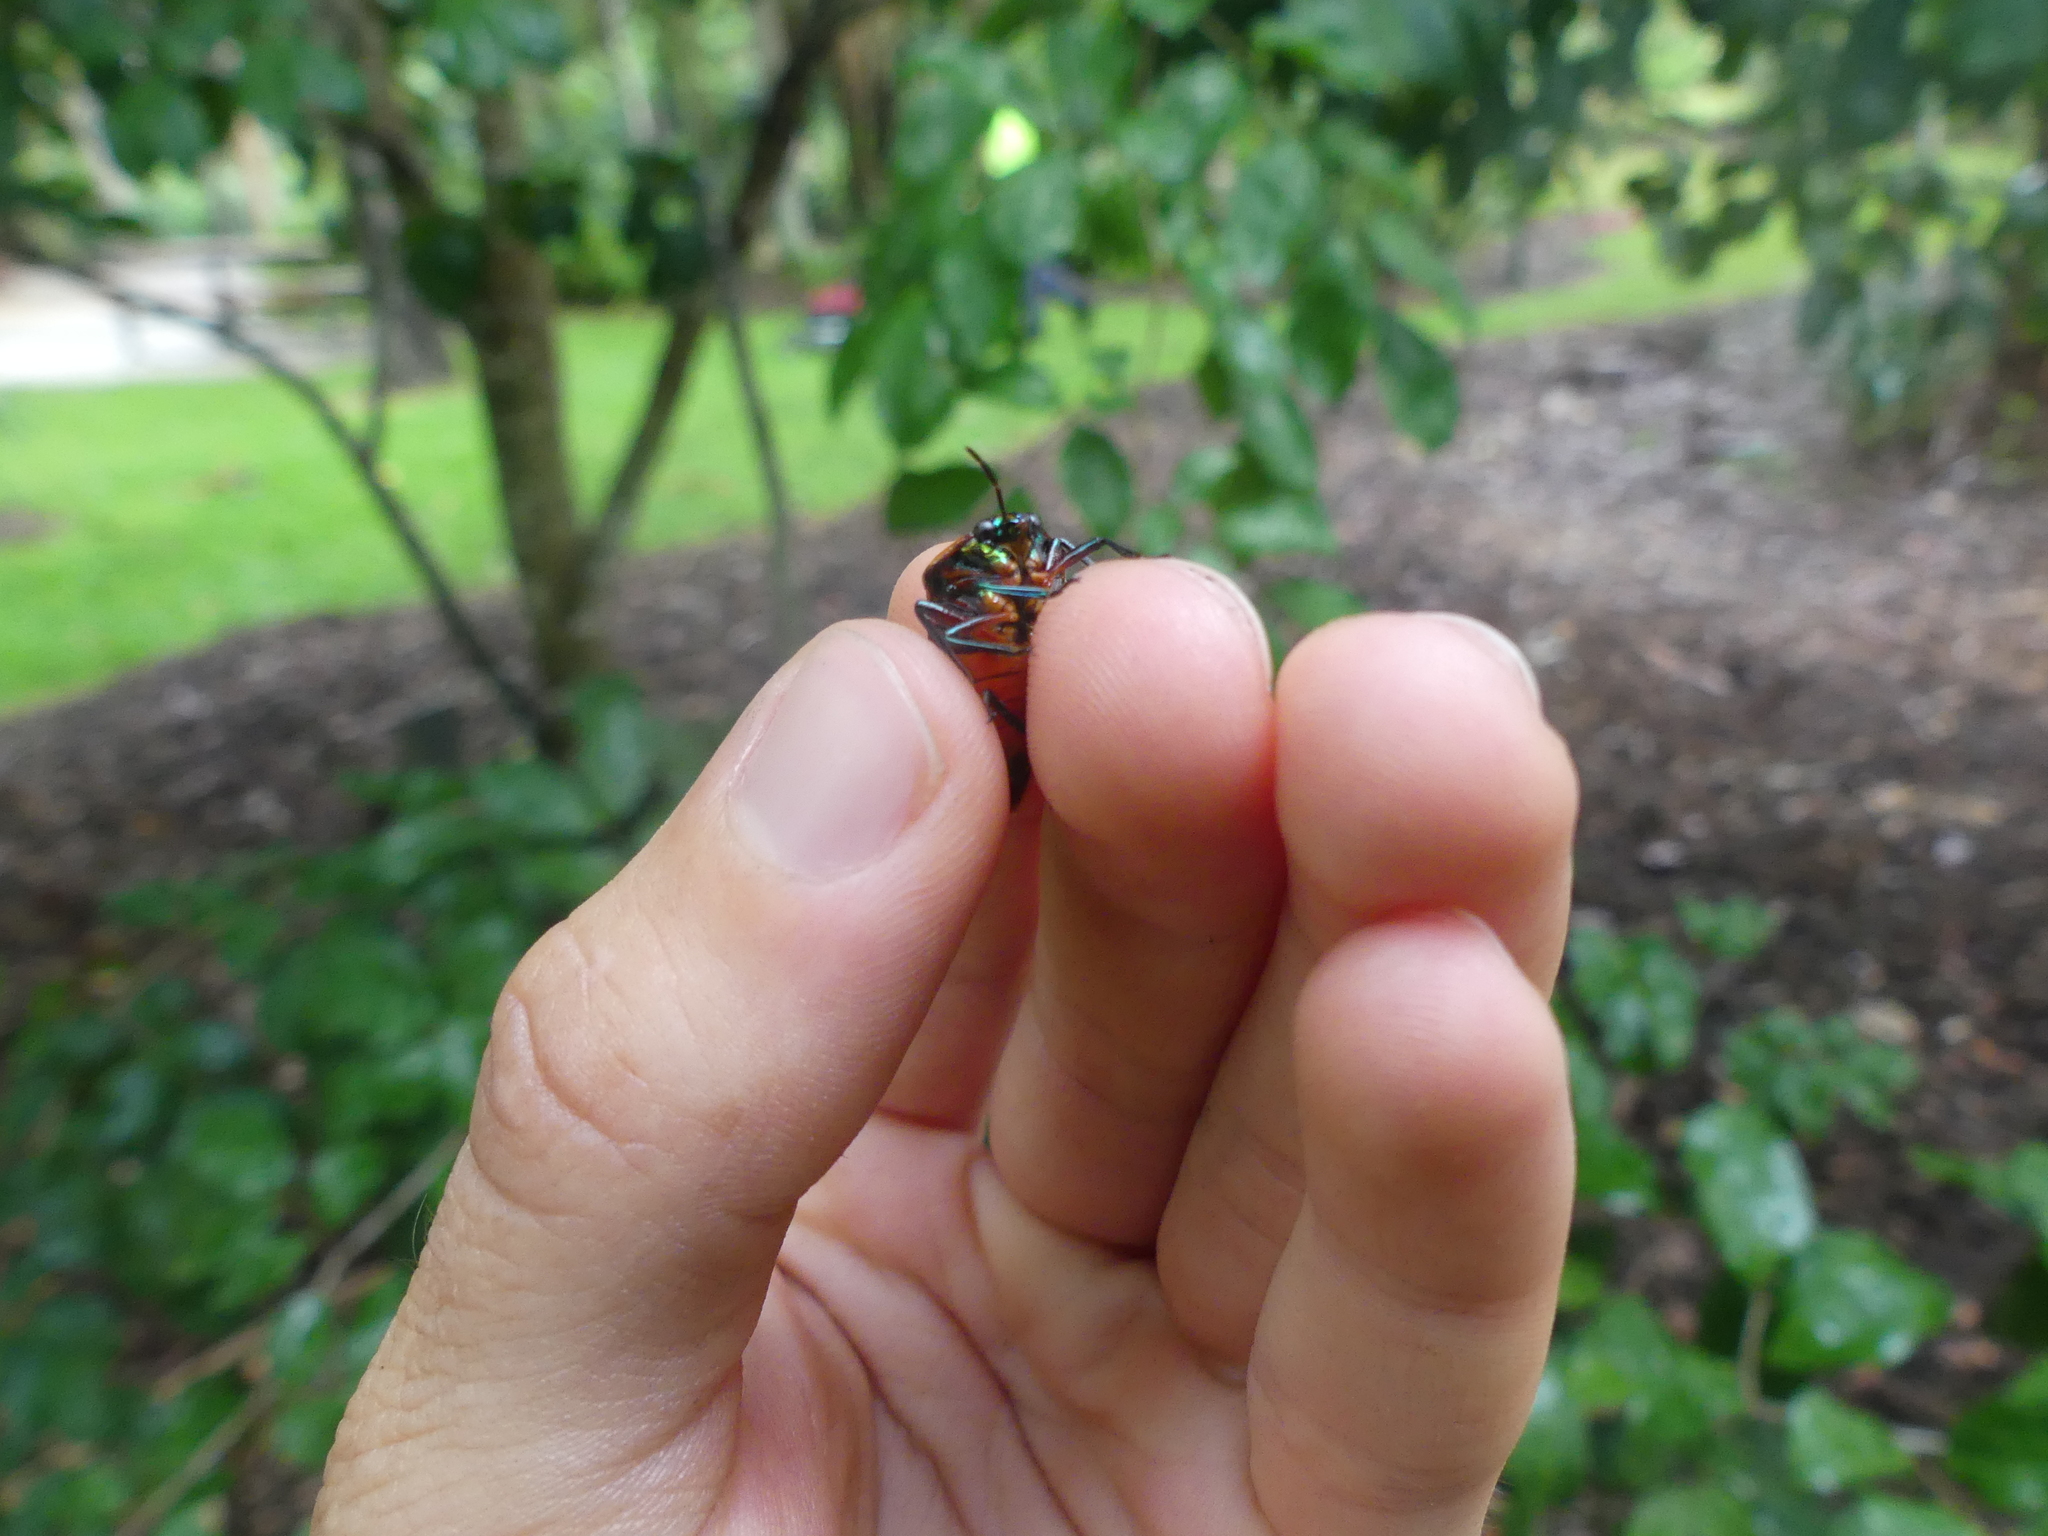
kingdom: Animalia
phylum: Arthropoda
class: Insecta
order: Hemiptera
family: Scutelleridae
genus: Calliphara
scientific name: Calliphara regalis
